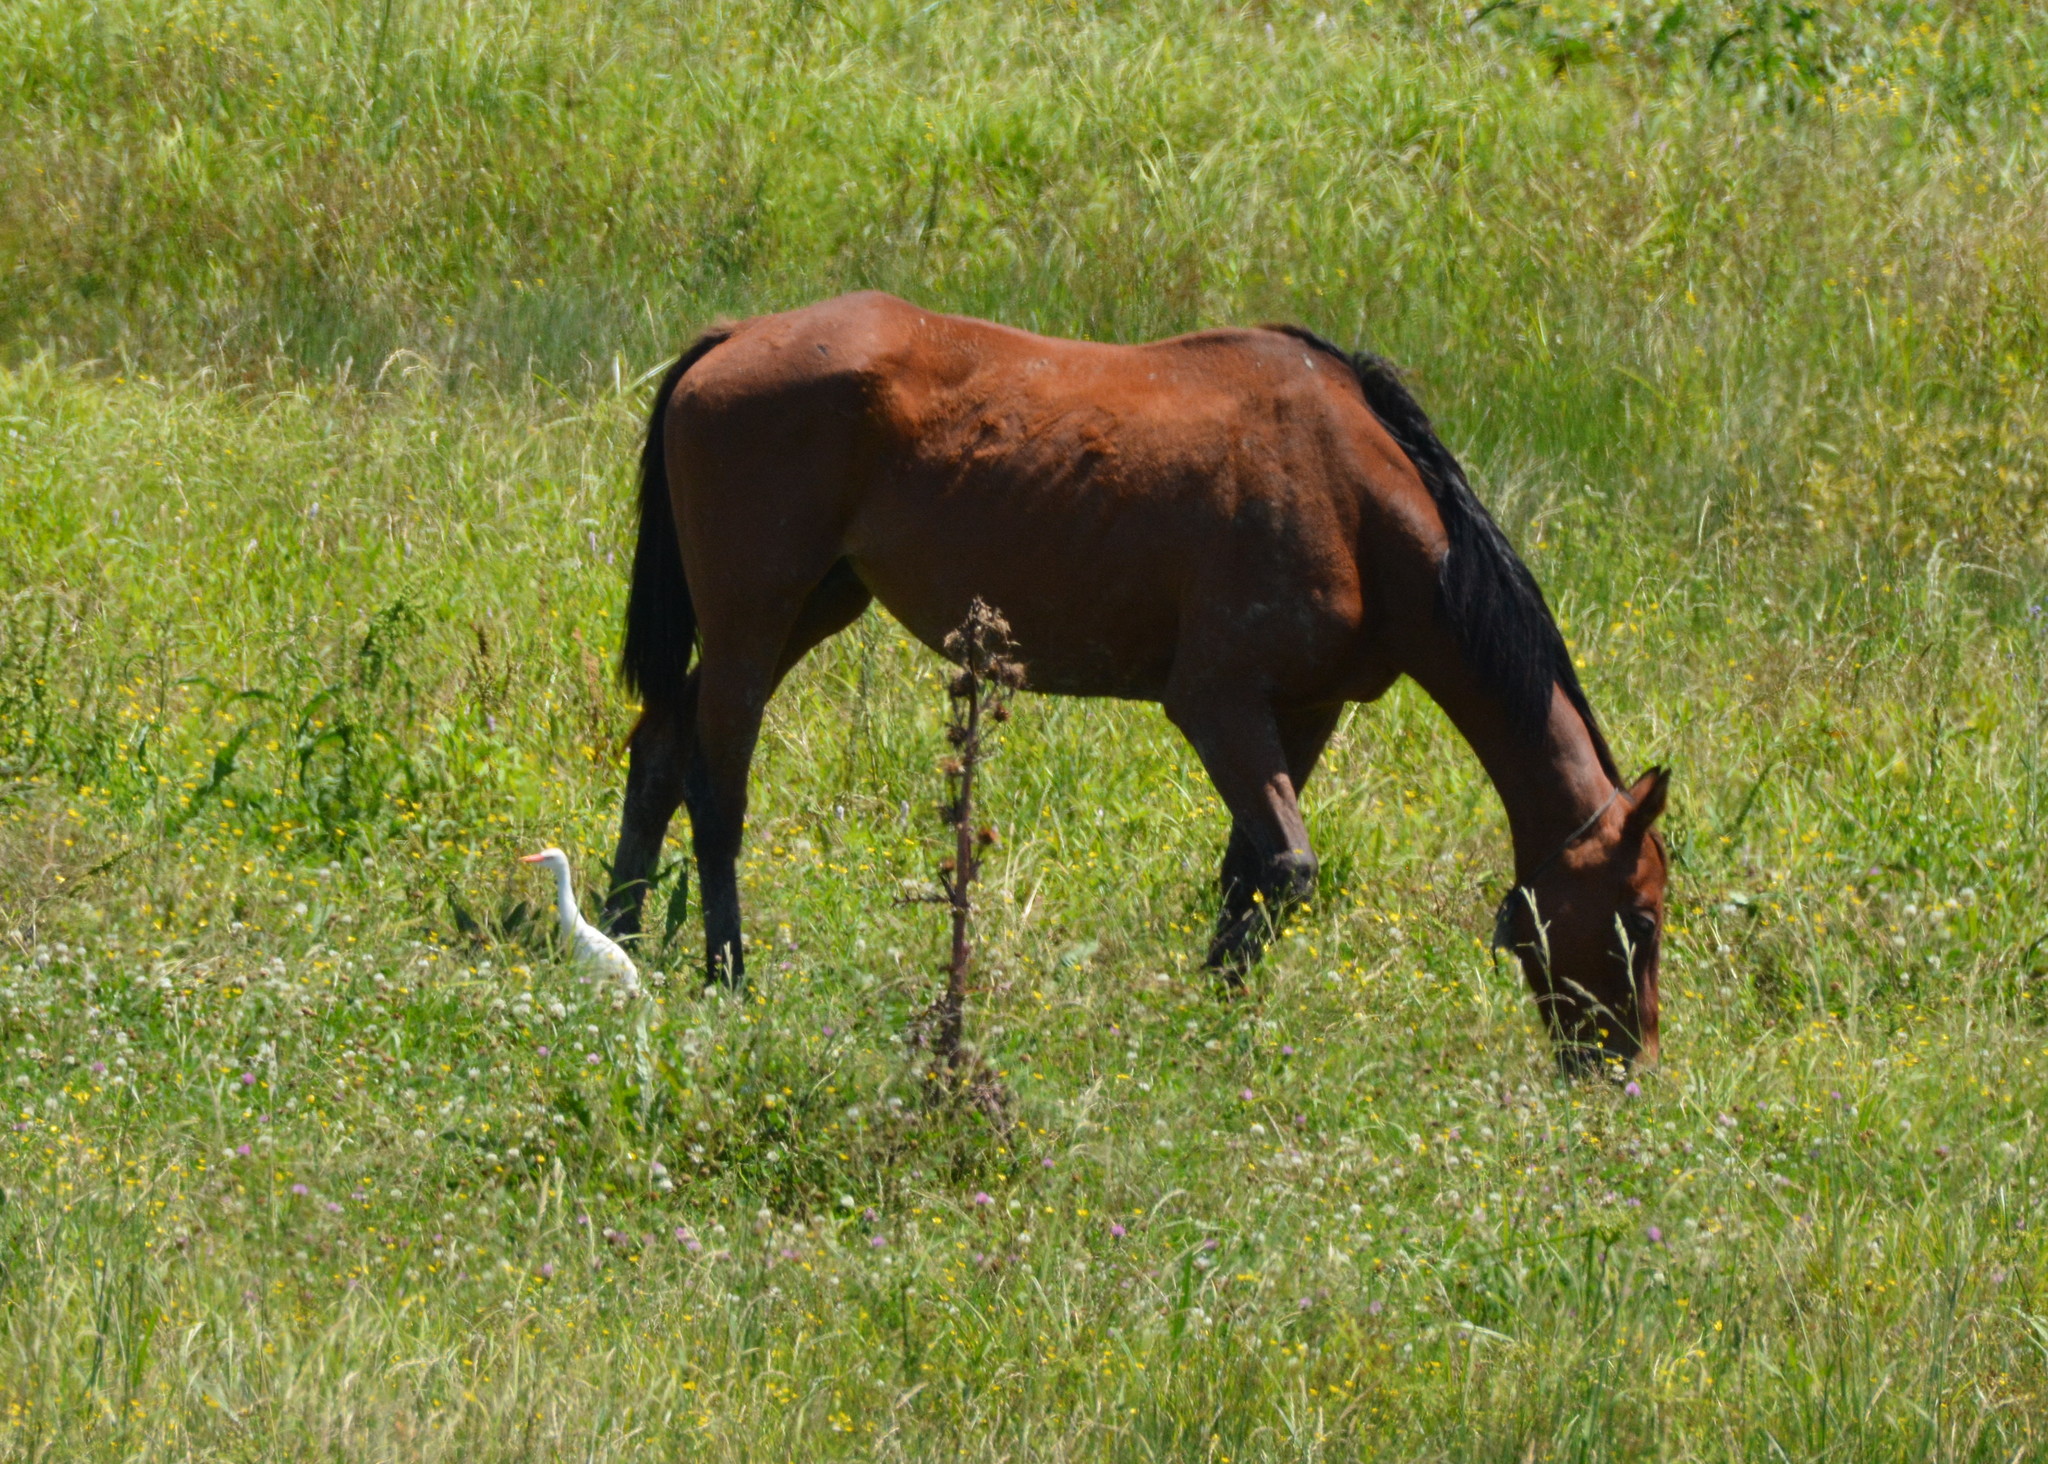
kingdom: Animalia
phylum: Chordata
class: Aves
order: Pelecaniformes
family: Ardeidae
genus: Bubulcus
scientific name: Bubulcus ibis
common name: Cattle egret
